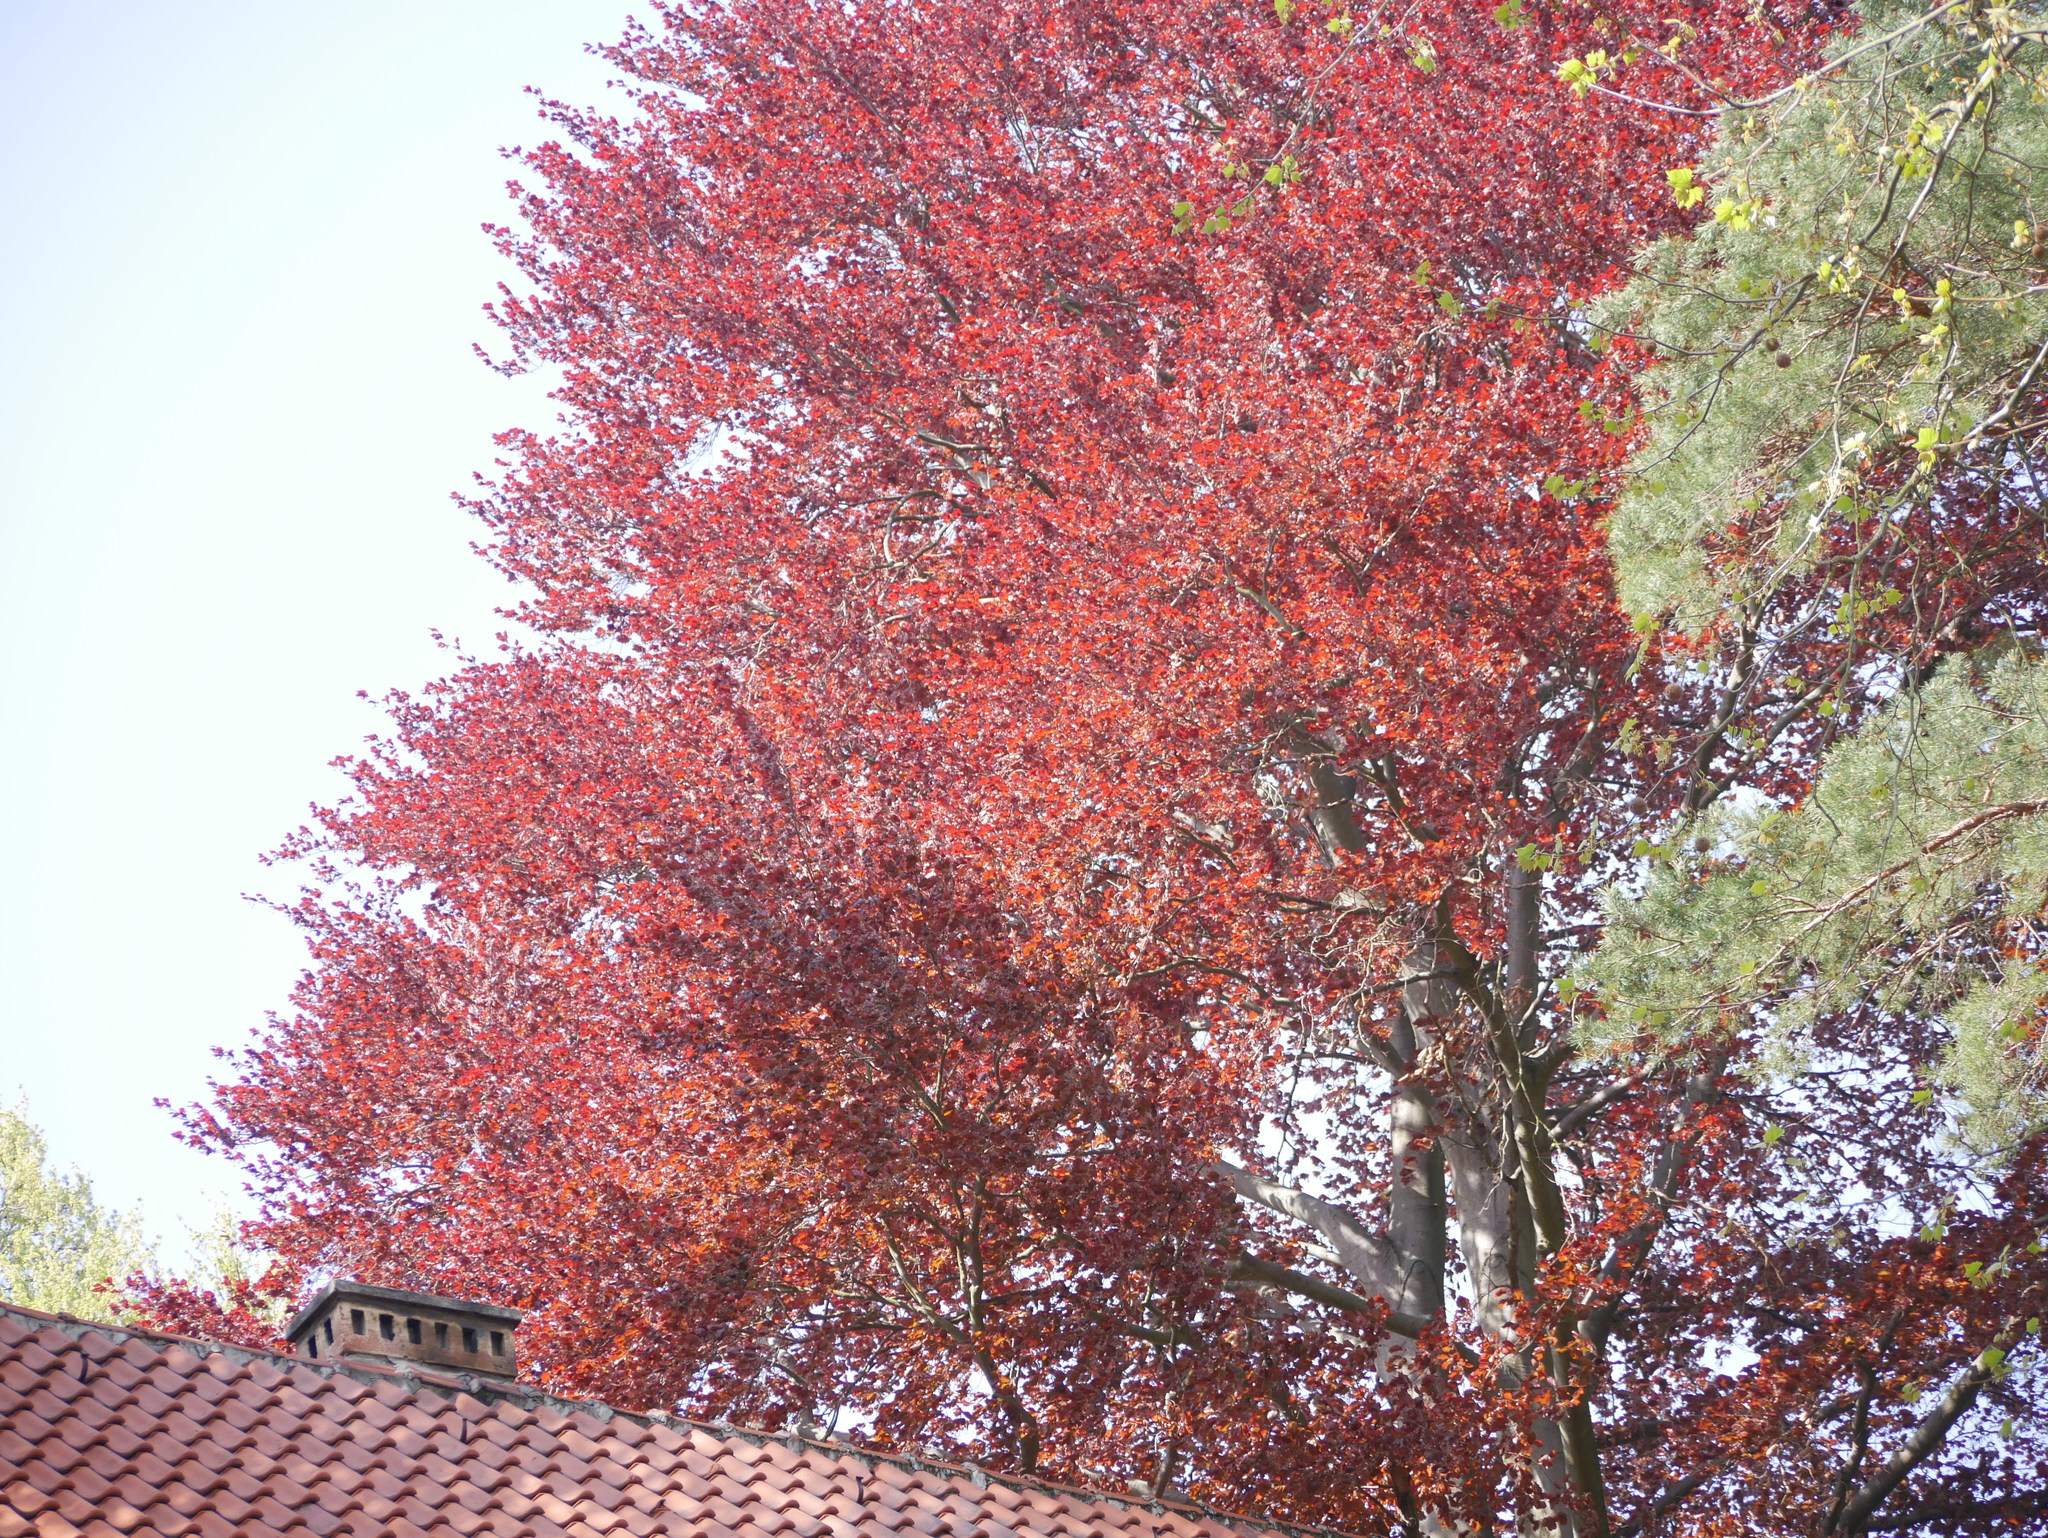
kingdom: Plantae
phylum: Tracheophyta
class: Magnoliopsida
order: Fagales
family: Fagaceae
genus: Fagus
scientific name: Fagus sylvatica
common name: Beech
